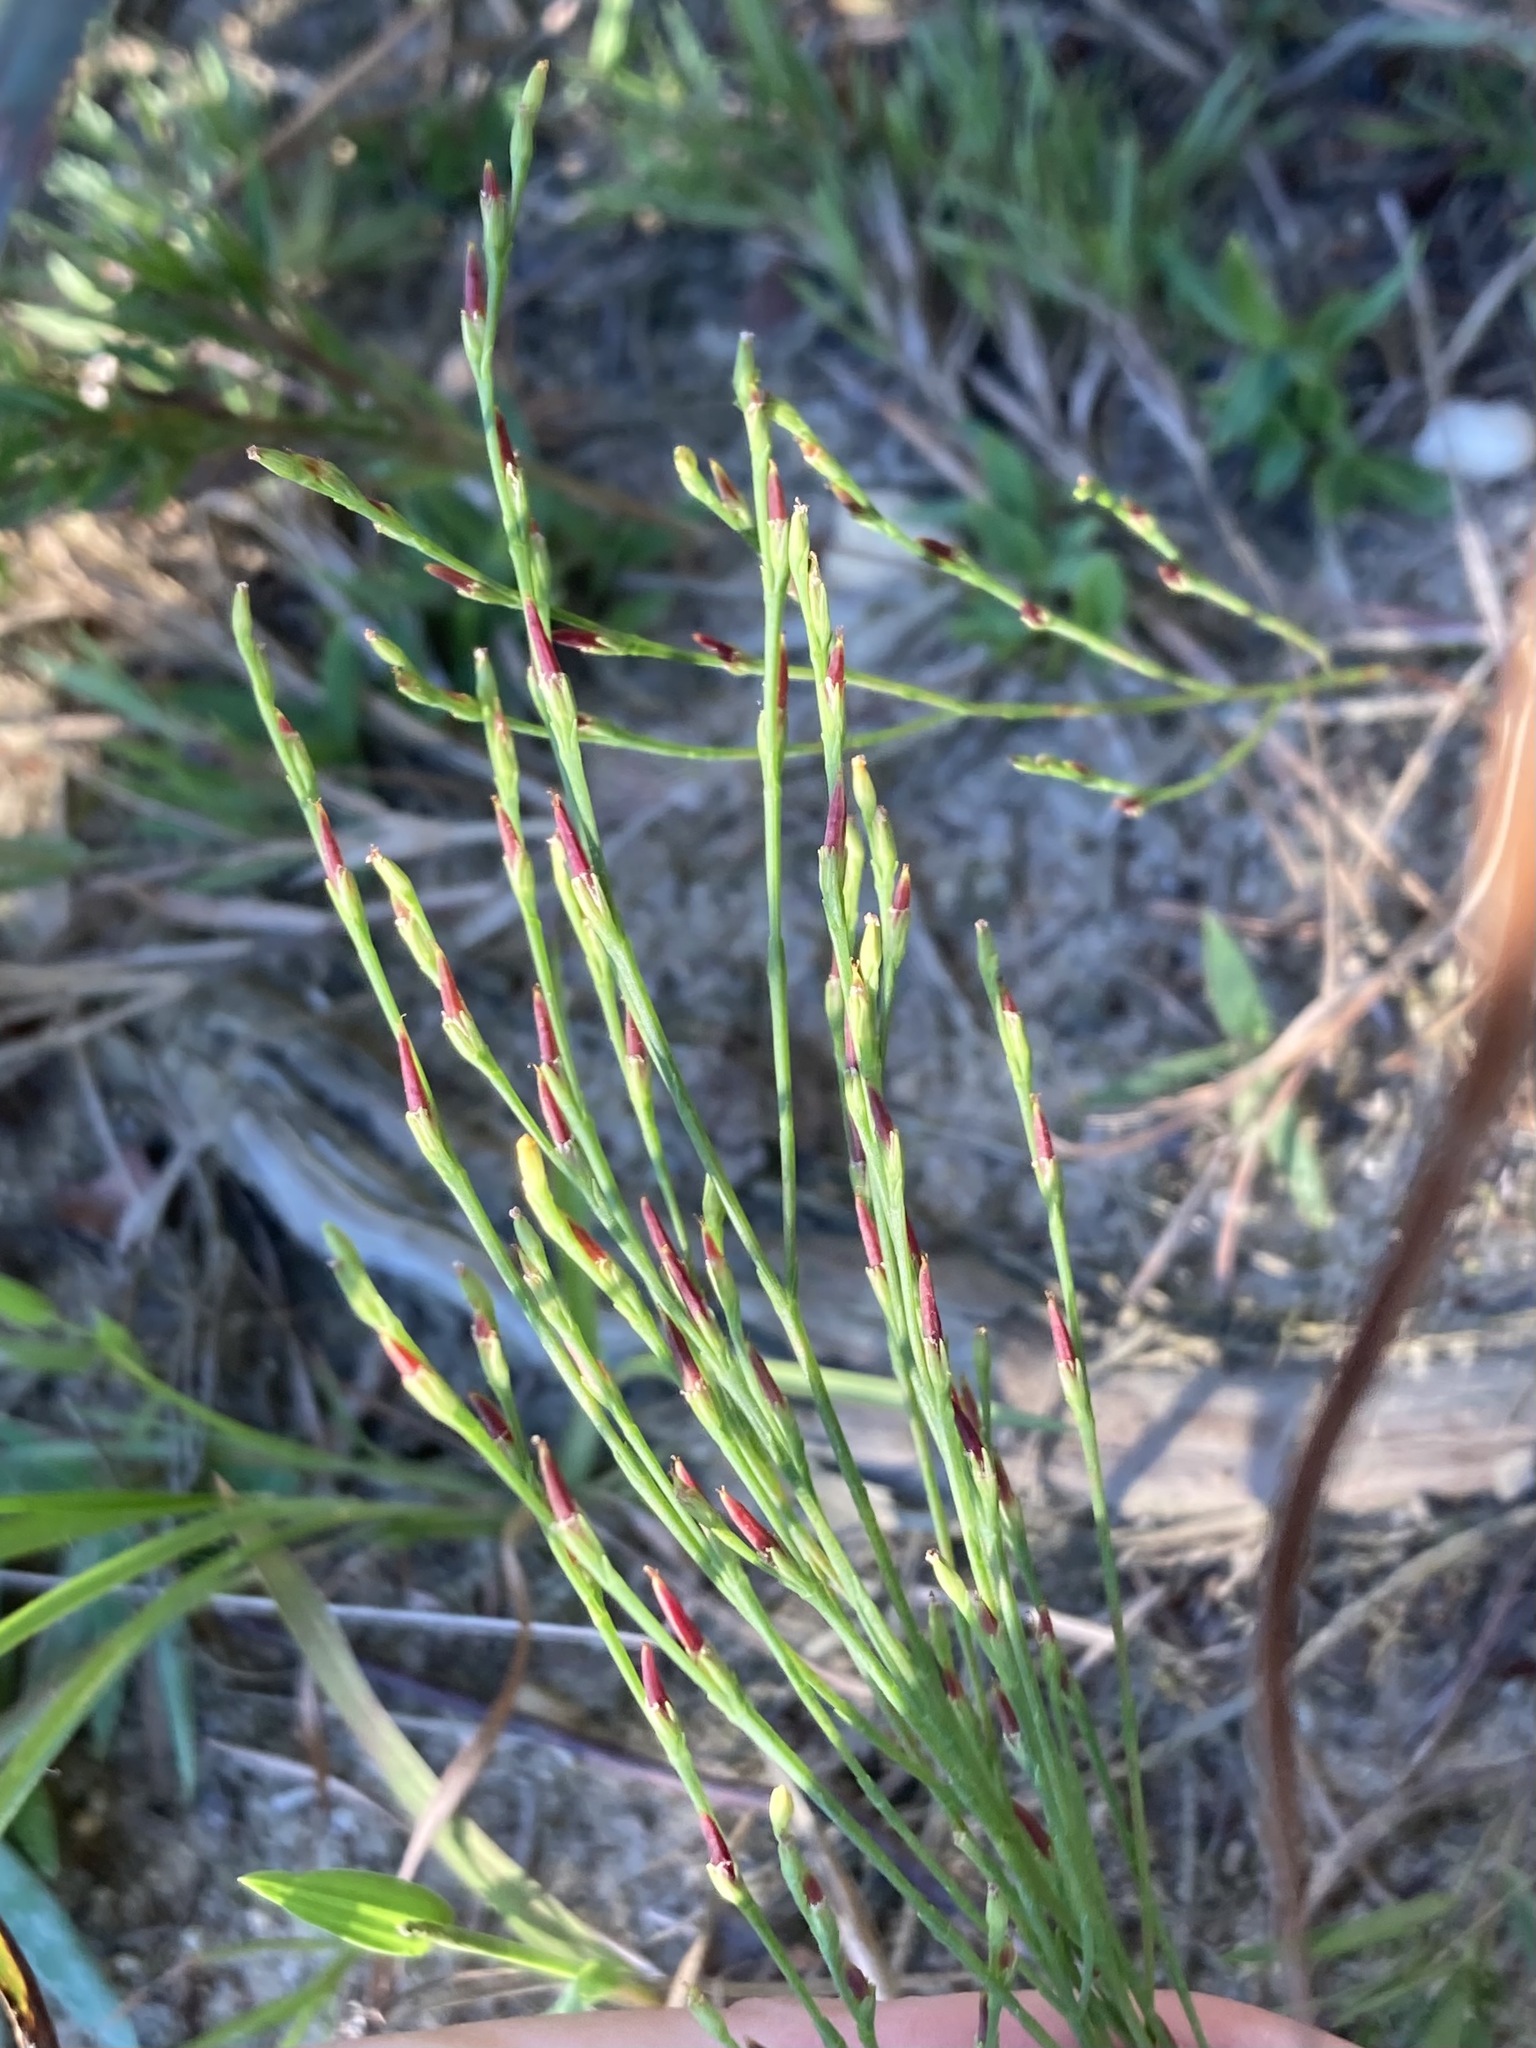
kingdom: Plantae
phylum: Tracheophyta
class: Magnoliopsida
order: Malpighiales
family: Hypericaceae
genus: Hypericum
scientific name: Hypericum gentianoides
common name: Gentian-leaved st. john's-wort
